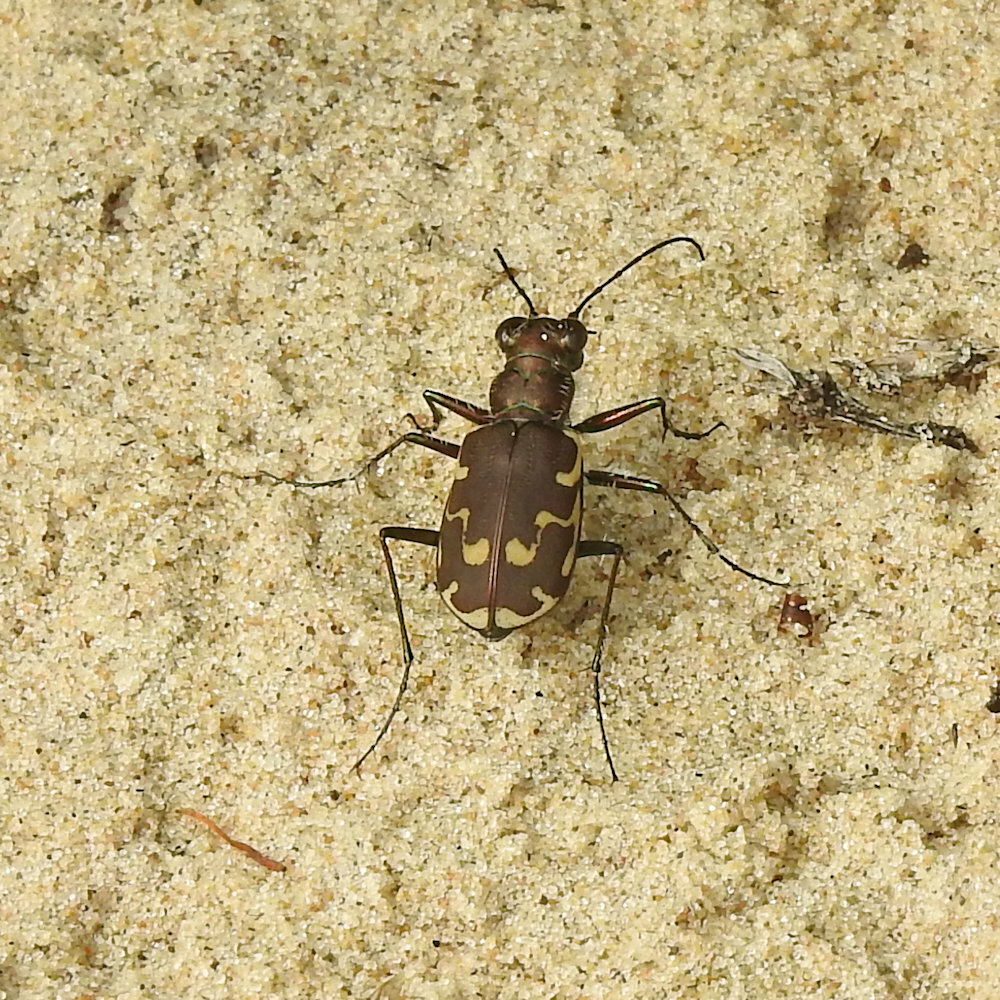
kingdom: Animalia
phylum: Arthropoda
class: Insecta
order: Coleoptera
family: Carabidae
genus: Cicindela
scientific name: Cicindela repanda
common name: Bronzed tiger beetle
